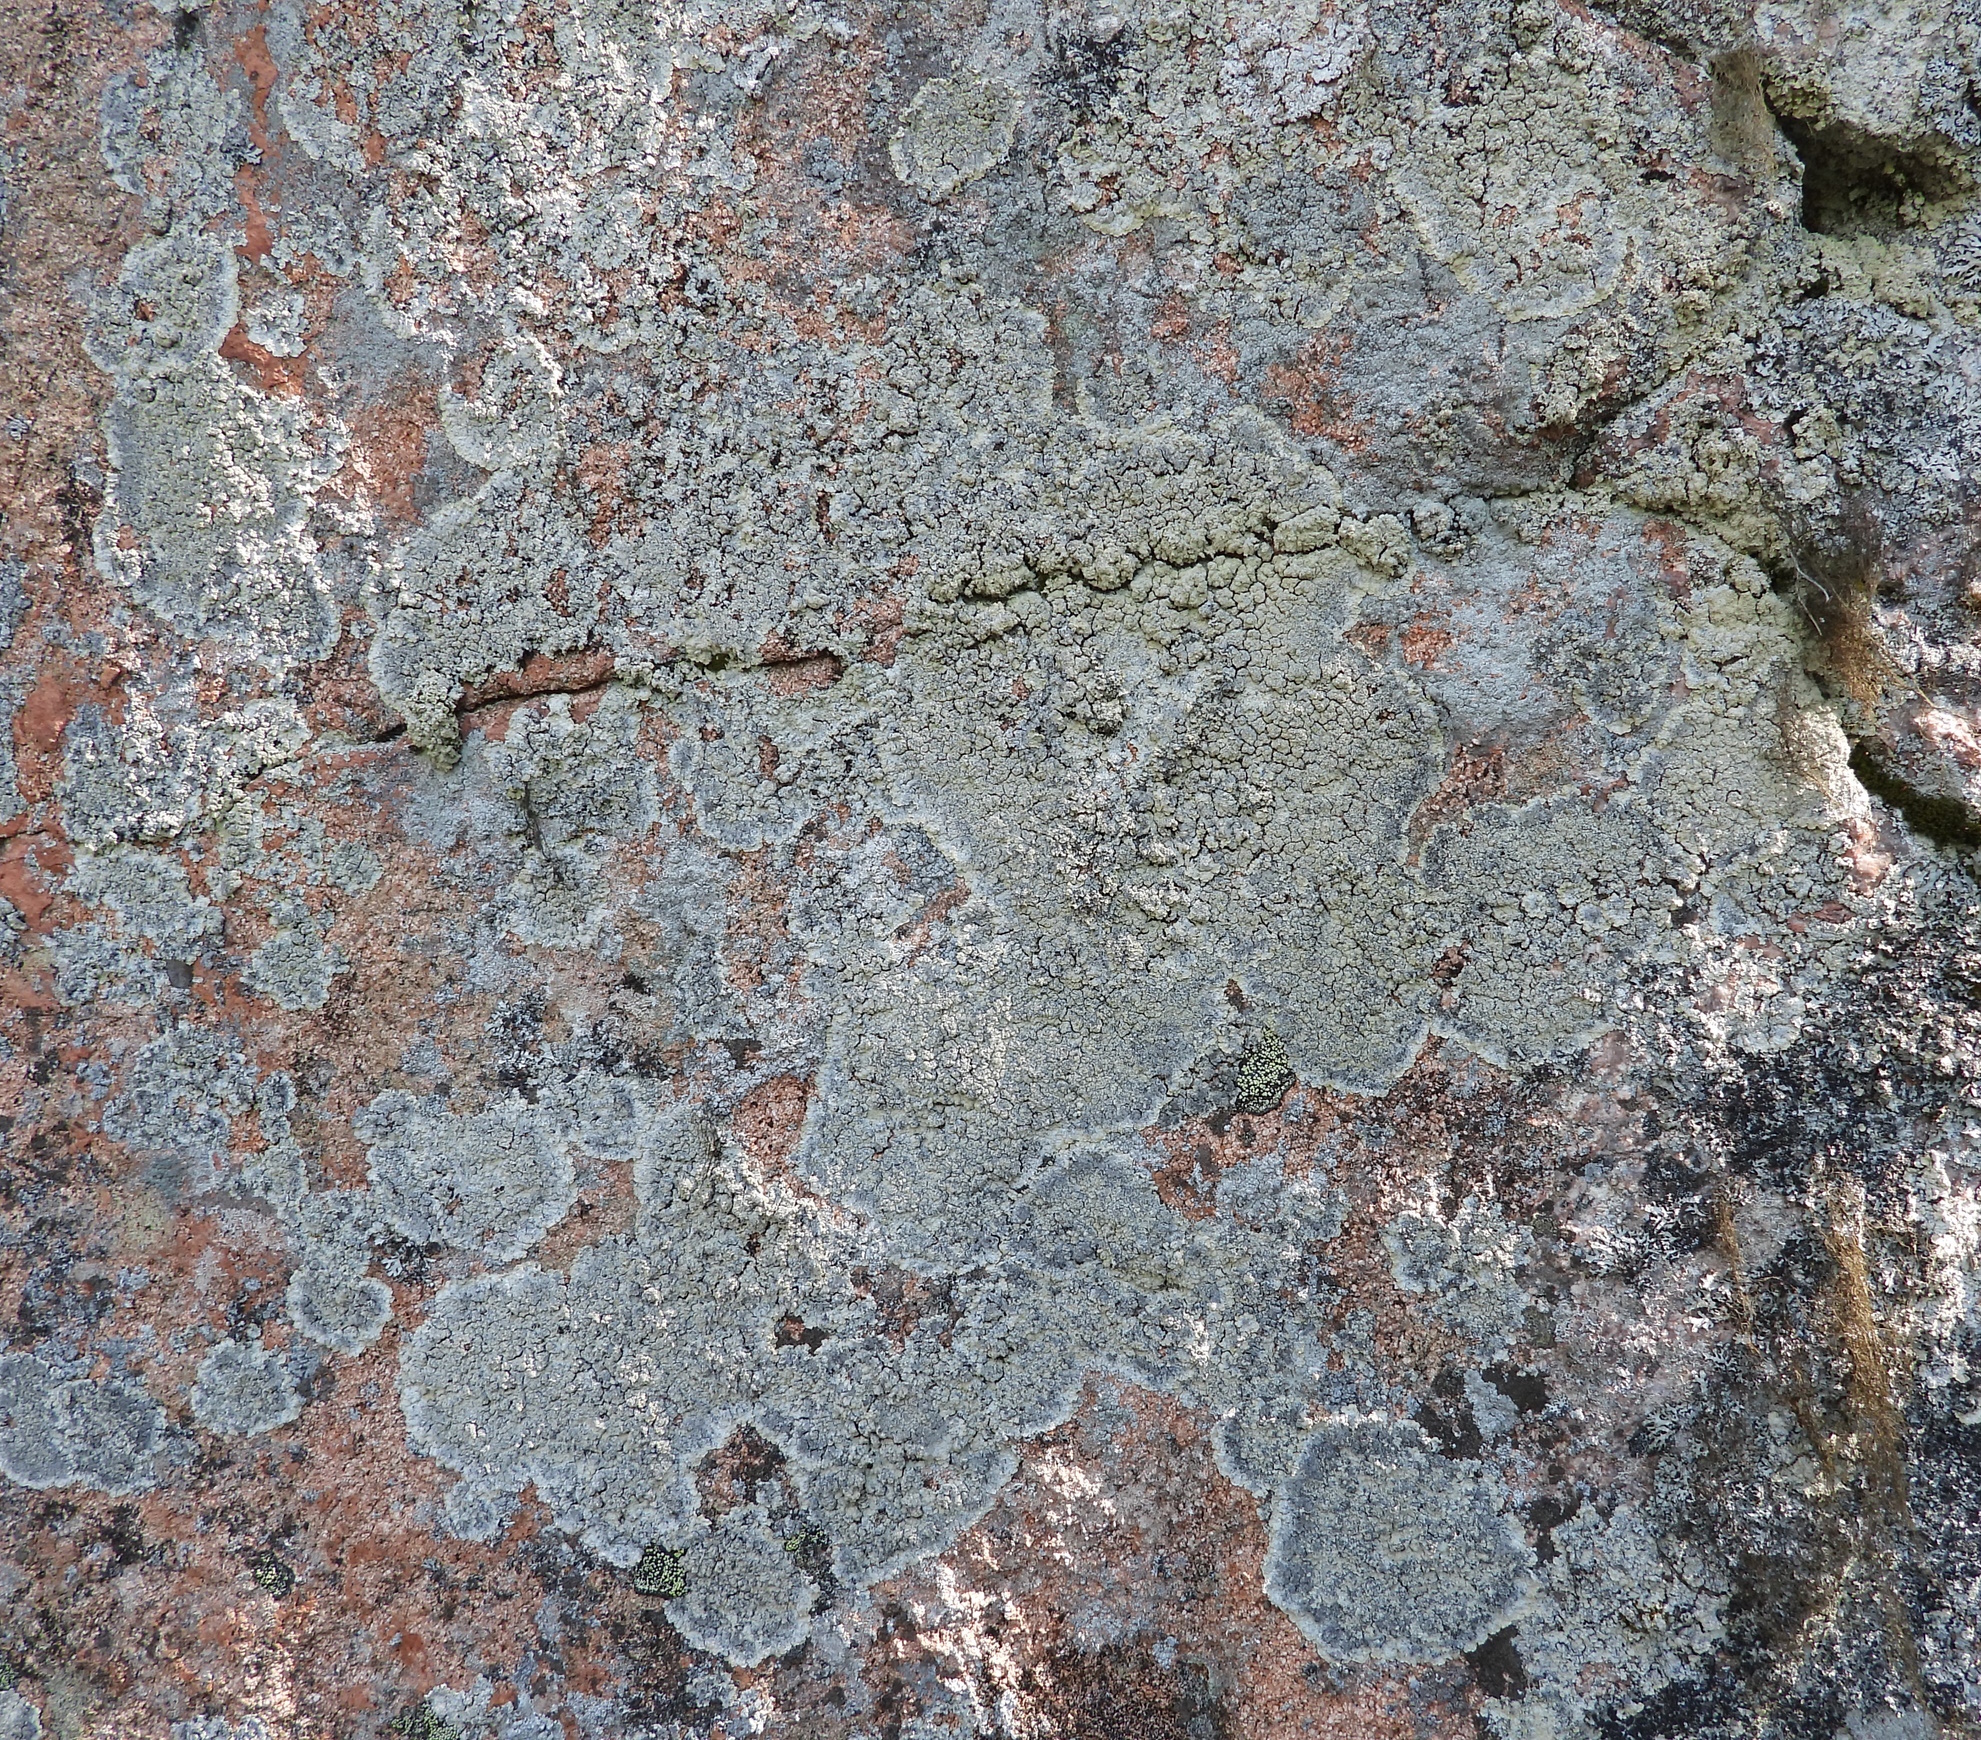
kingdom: Fungi
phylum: Ascomycota
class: Lecanoromycetes
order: Lecanorales
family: Stereocaulaceae
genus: Lepraria
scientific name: Lepraria membranacea
